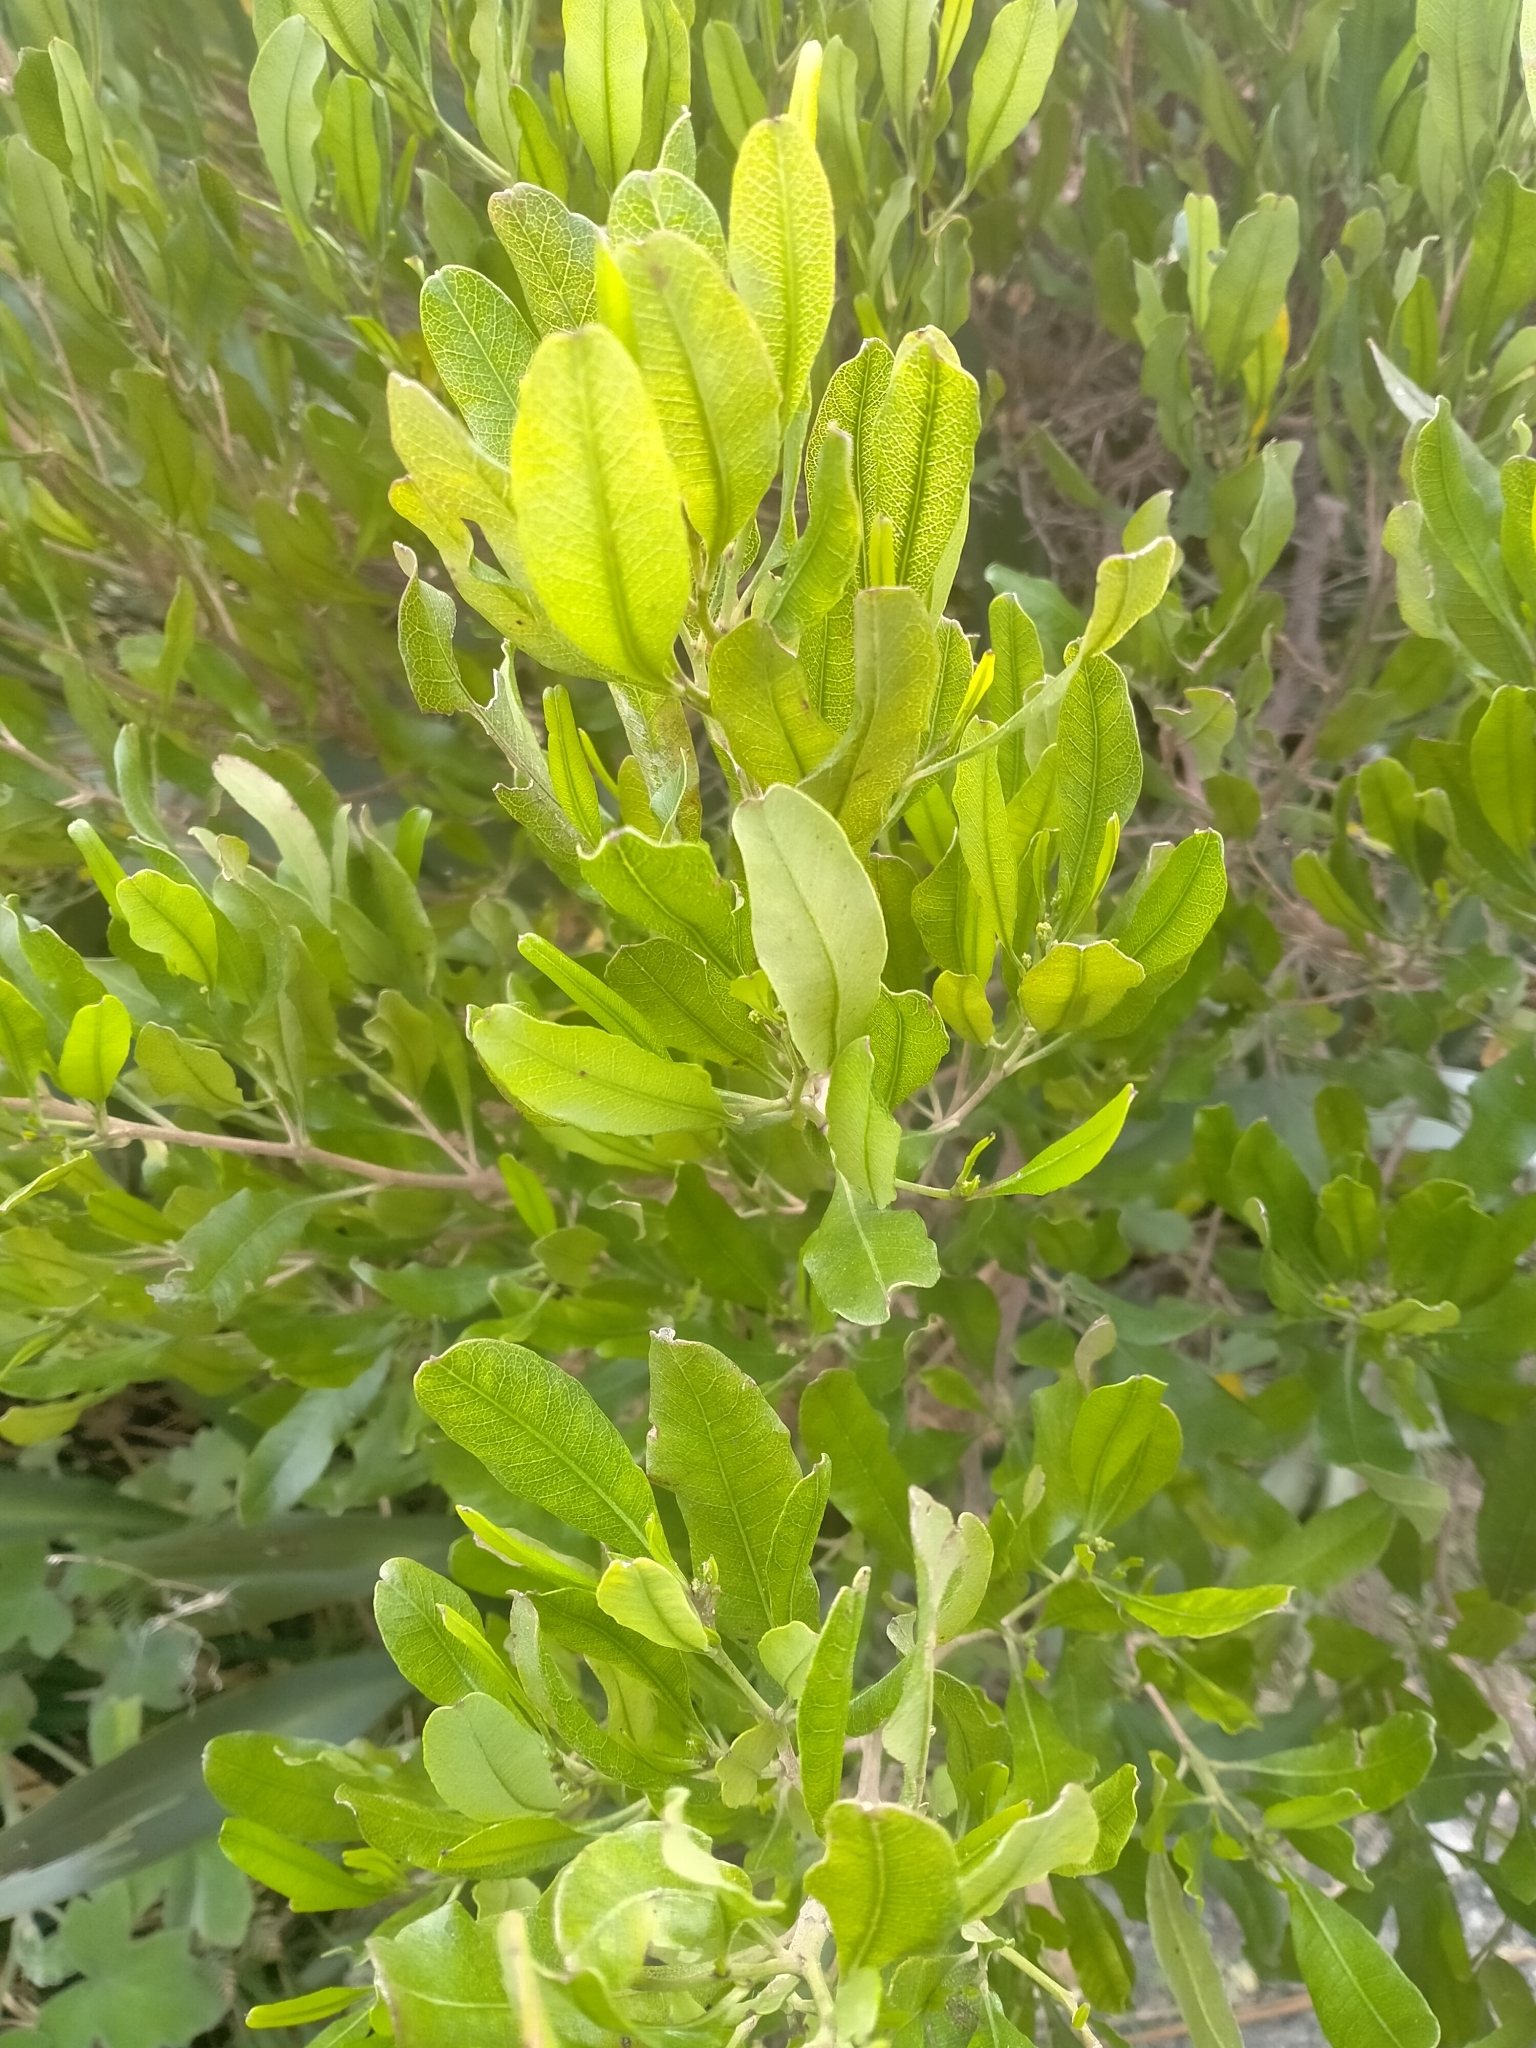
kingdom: Plantae
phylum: Tracheophyta
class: Magnoliopsida
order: Sapindales
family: Sapindaceae
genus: Dodonaea
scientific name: Dodonaea viscosa
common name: Hopbush
